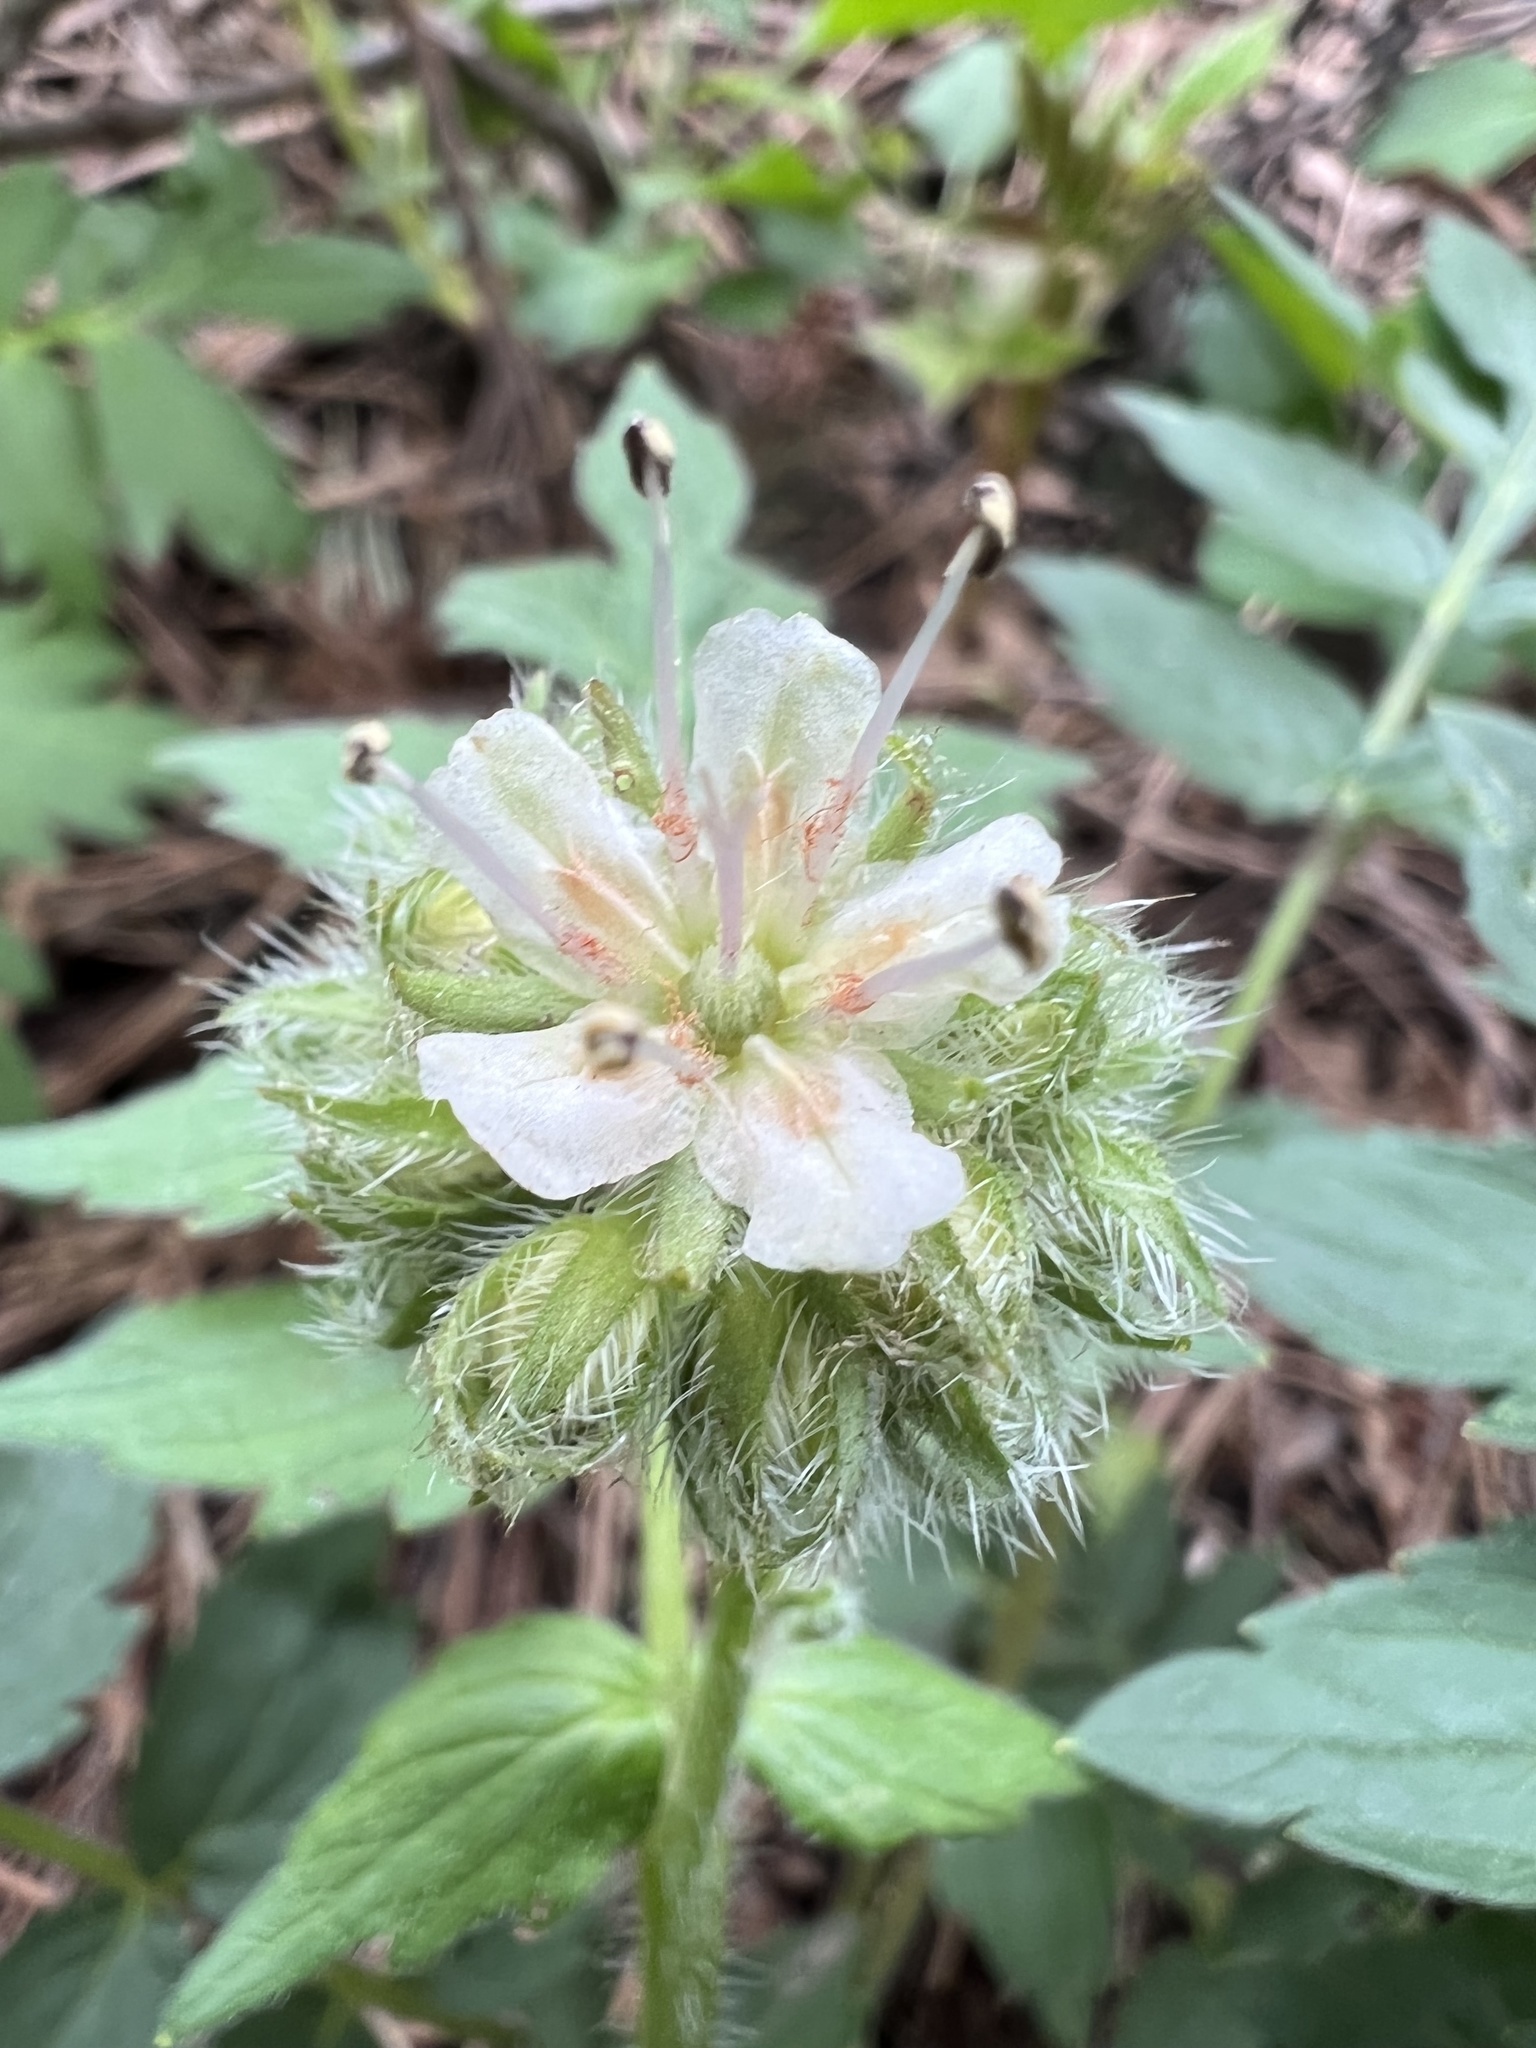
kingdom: Plantae
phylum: Tracheophyta
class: Magnoliopsida
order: Boraginales
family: Hydrophyllaceae
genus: Hydrophyllum
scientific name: Hydrophyllum fendleri
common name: Fendler's waterleaf
